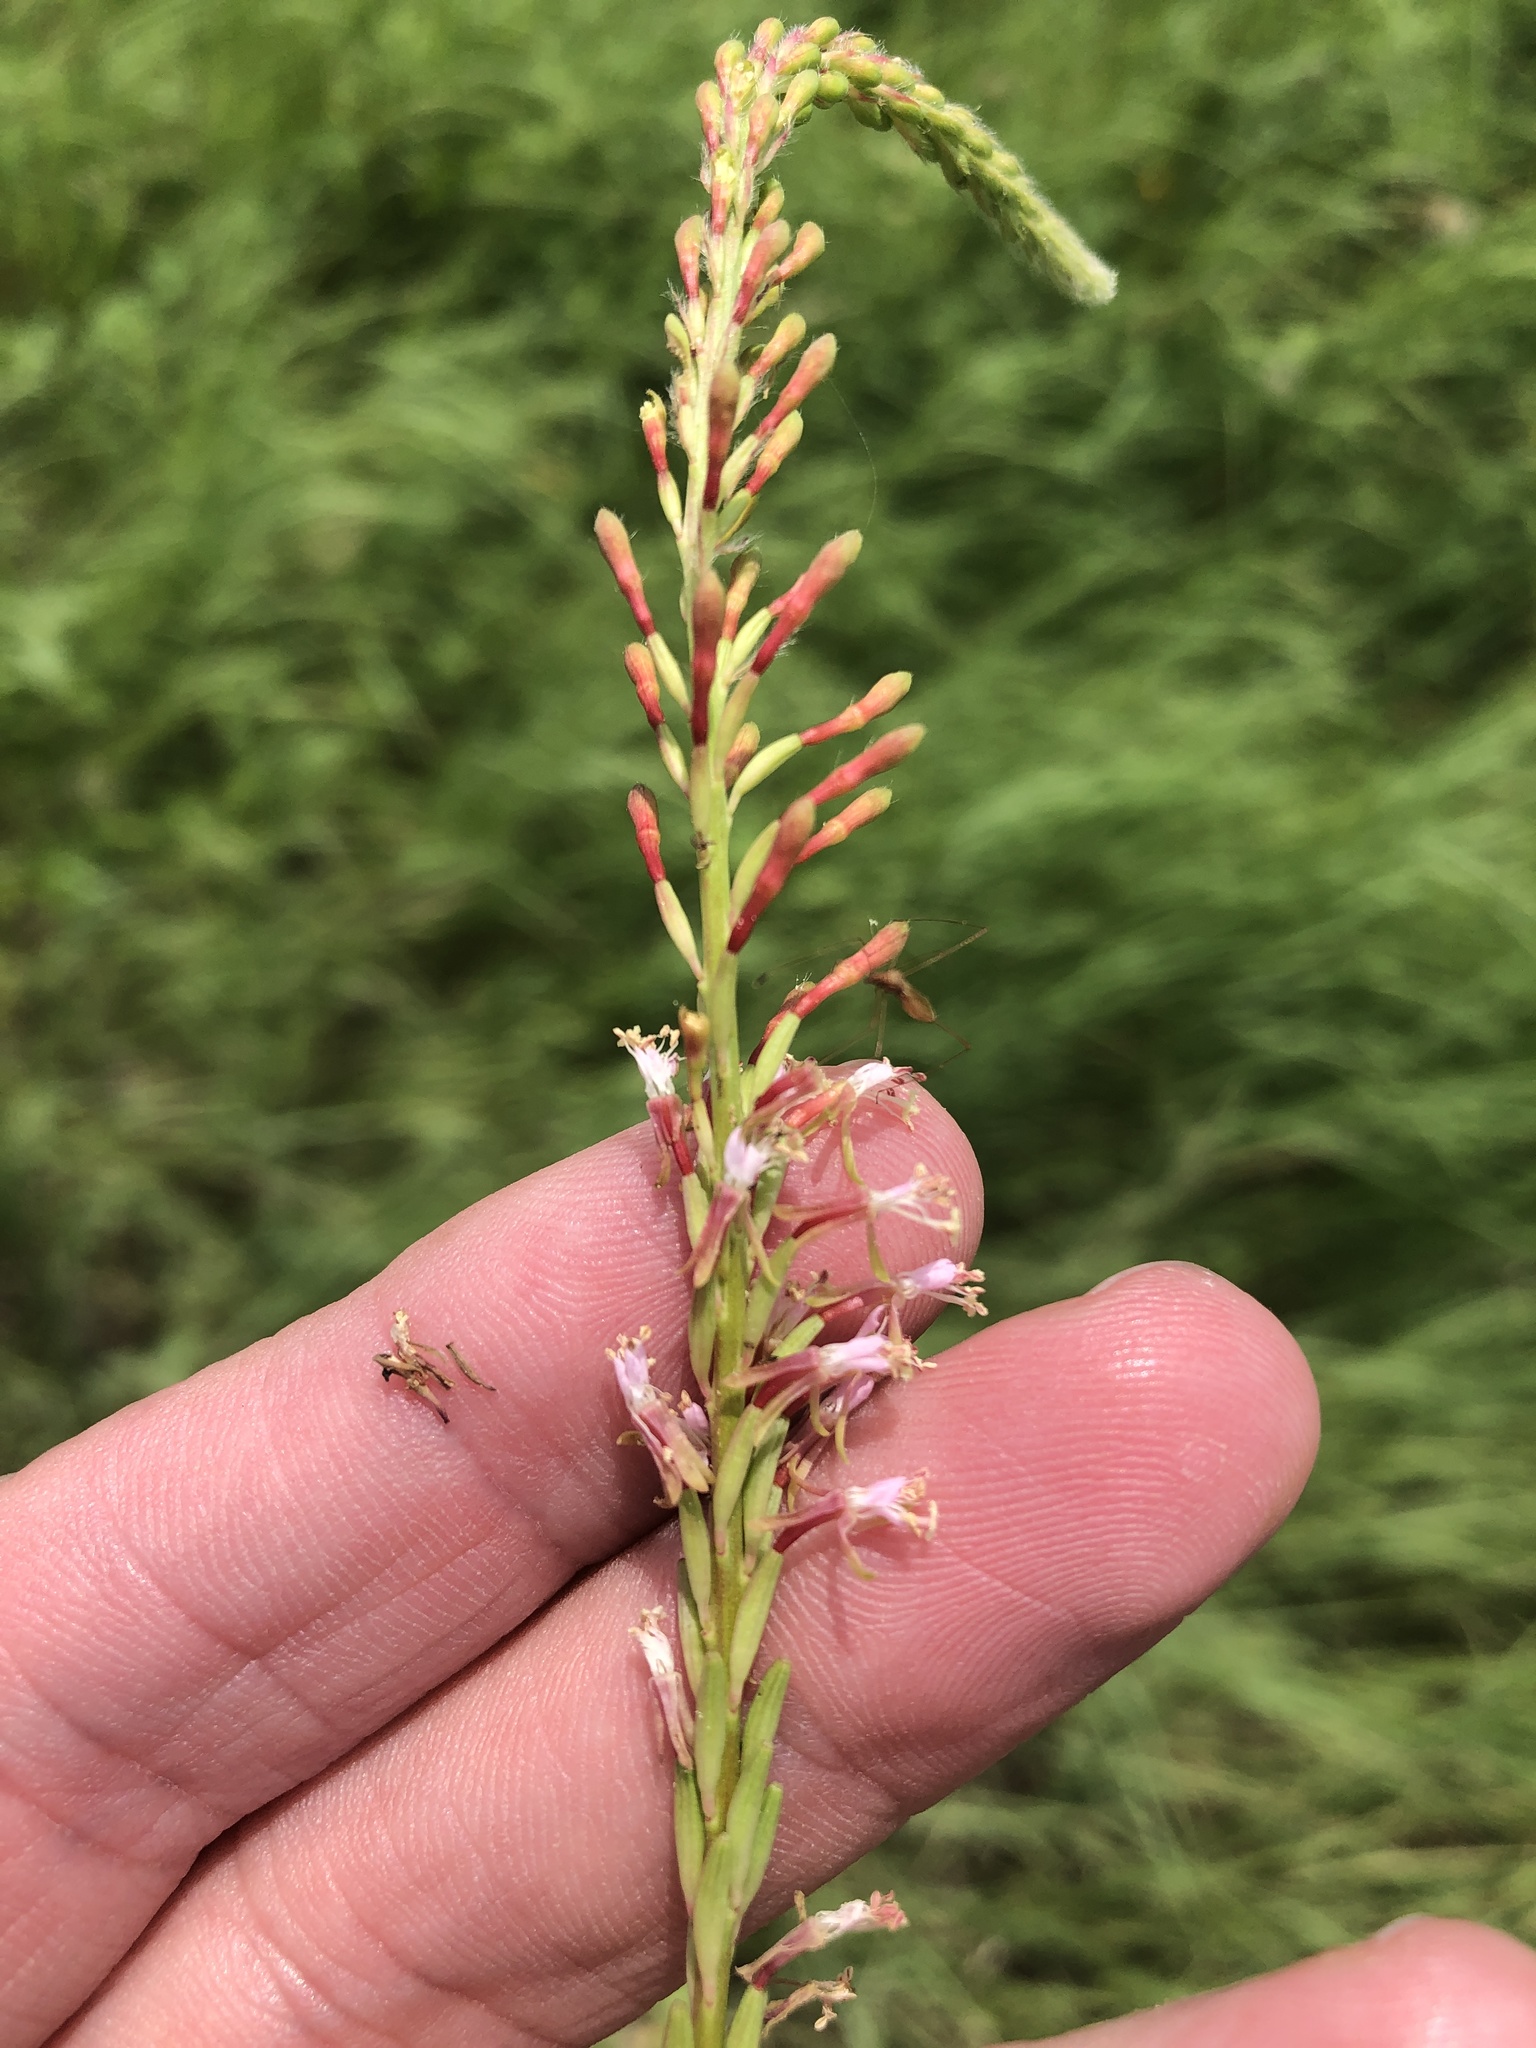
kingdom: Plantae
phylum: Tracheophyta
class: Magnoliopsida
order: Myrtales
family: Onagraceae
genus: Oenothera
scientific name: Oenothera curtiflora
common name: Velvetweed
